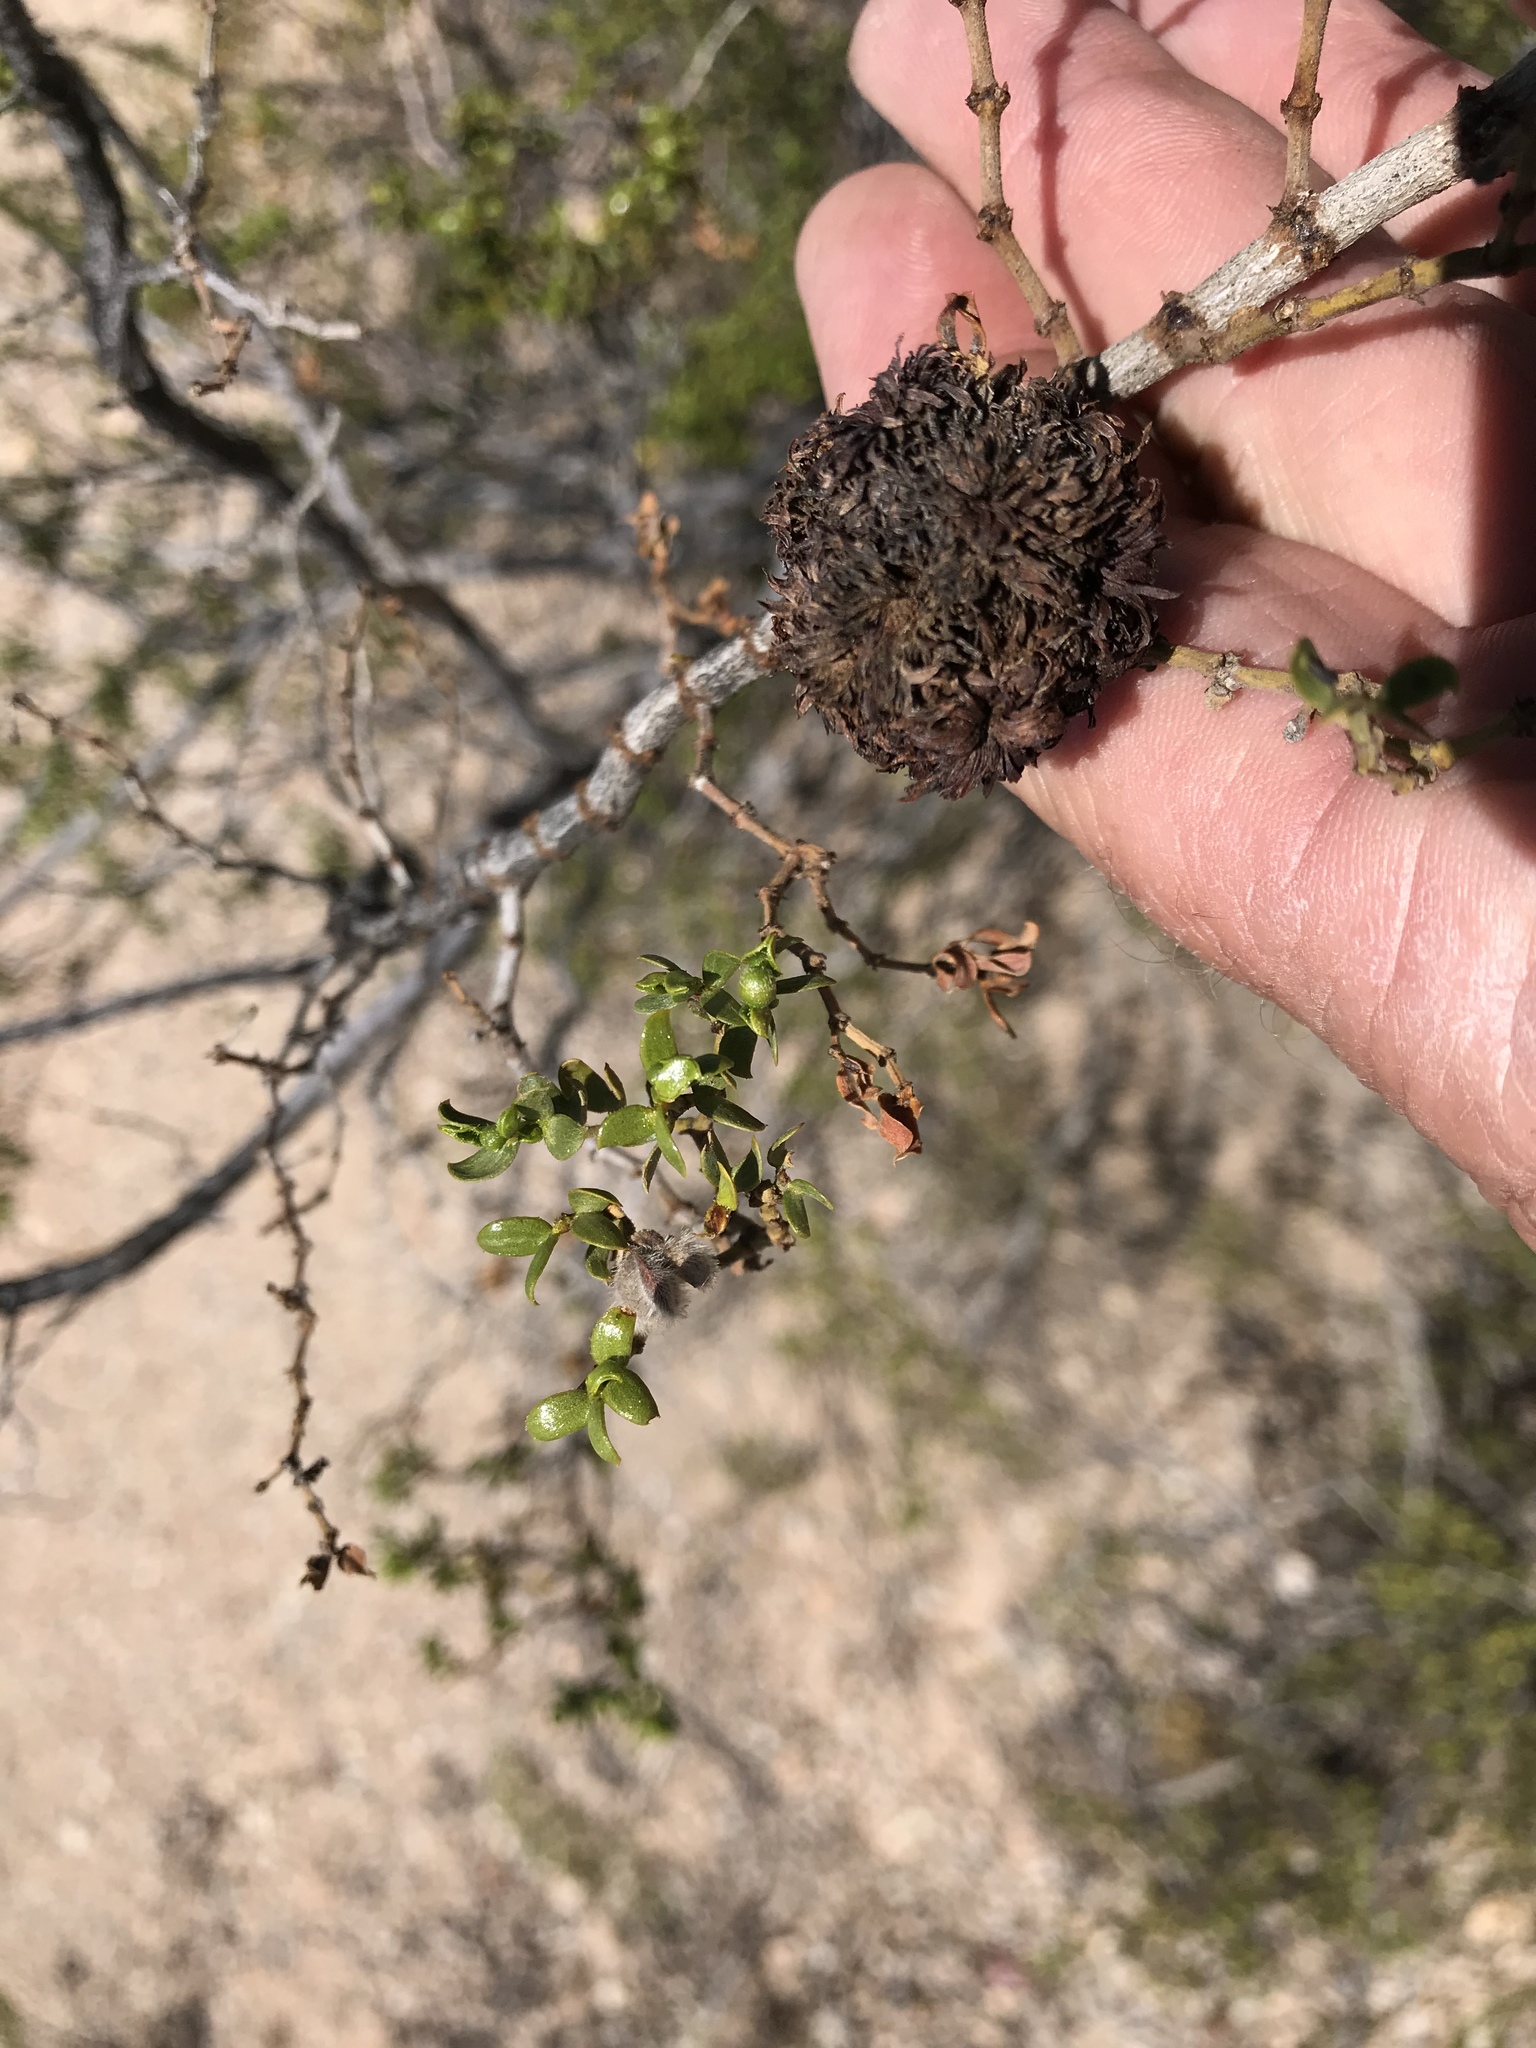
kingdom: Animalia
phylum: Arthropoda
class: Insecta
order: Diptera
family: Cecidomyiidae
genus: Asphondylia
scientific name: Asphondylia auripila
